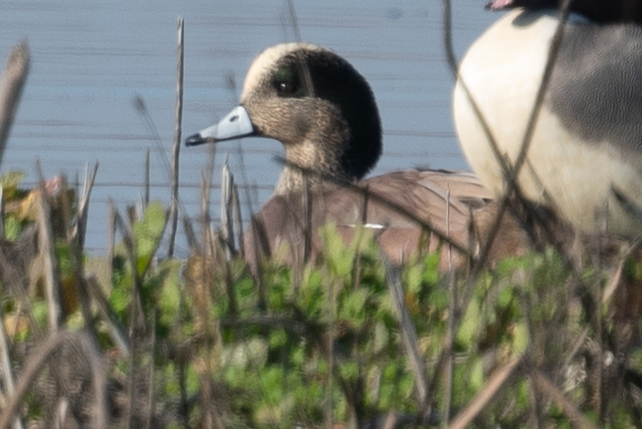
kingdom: Animalia
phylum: Chordata
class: Aves
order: Anseriformes
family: Anatidae
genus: Mareca
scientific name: Mareca americana
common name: American wigeon
